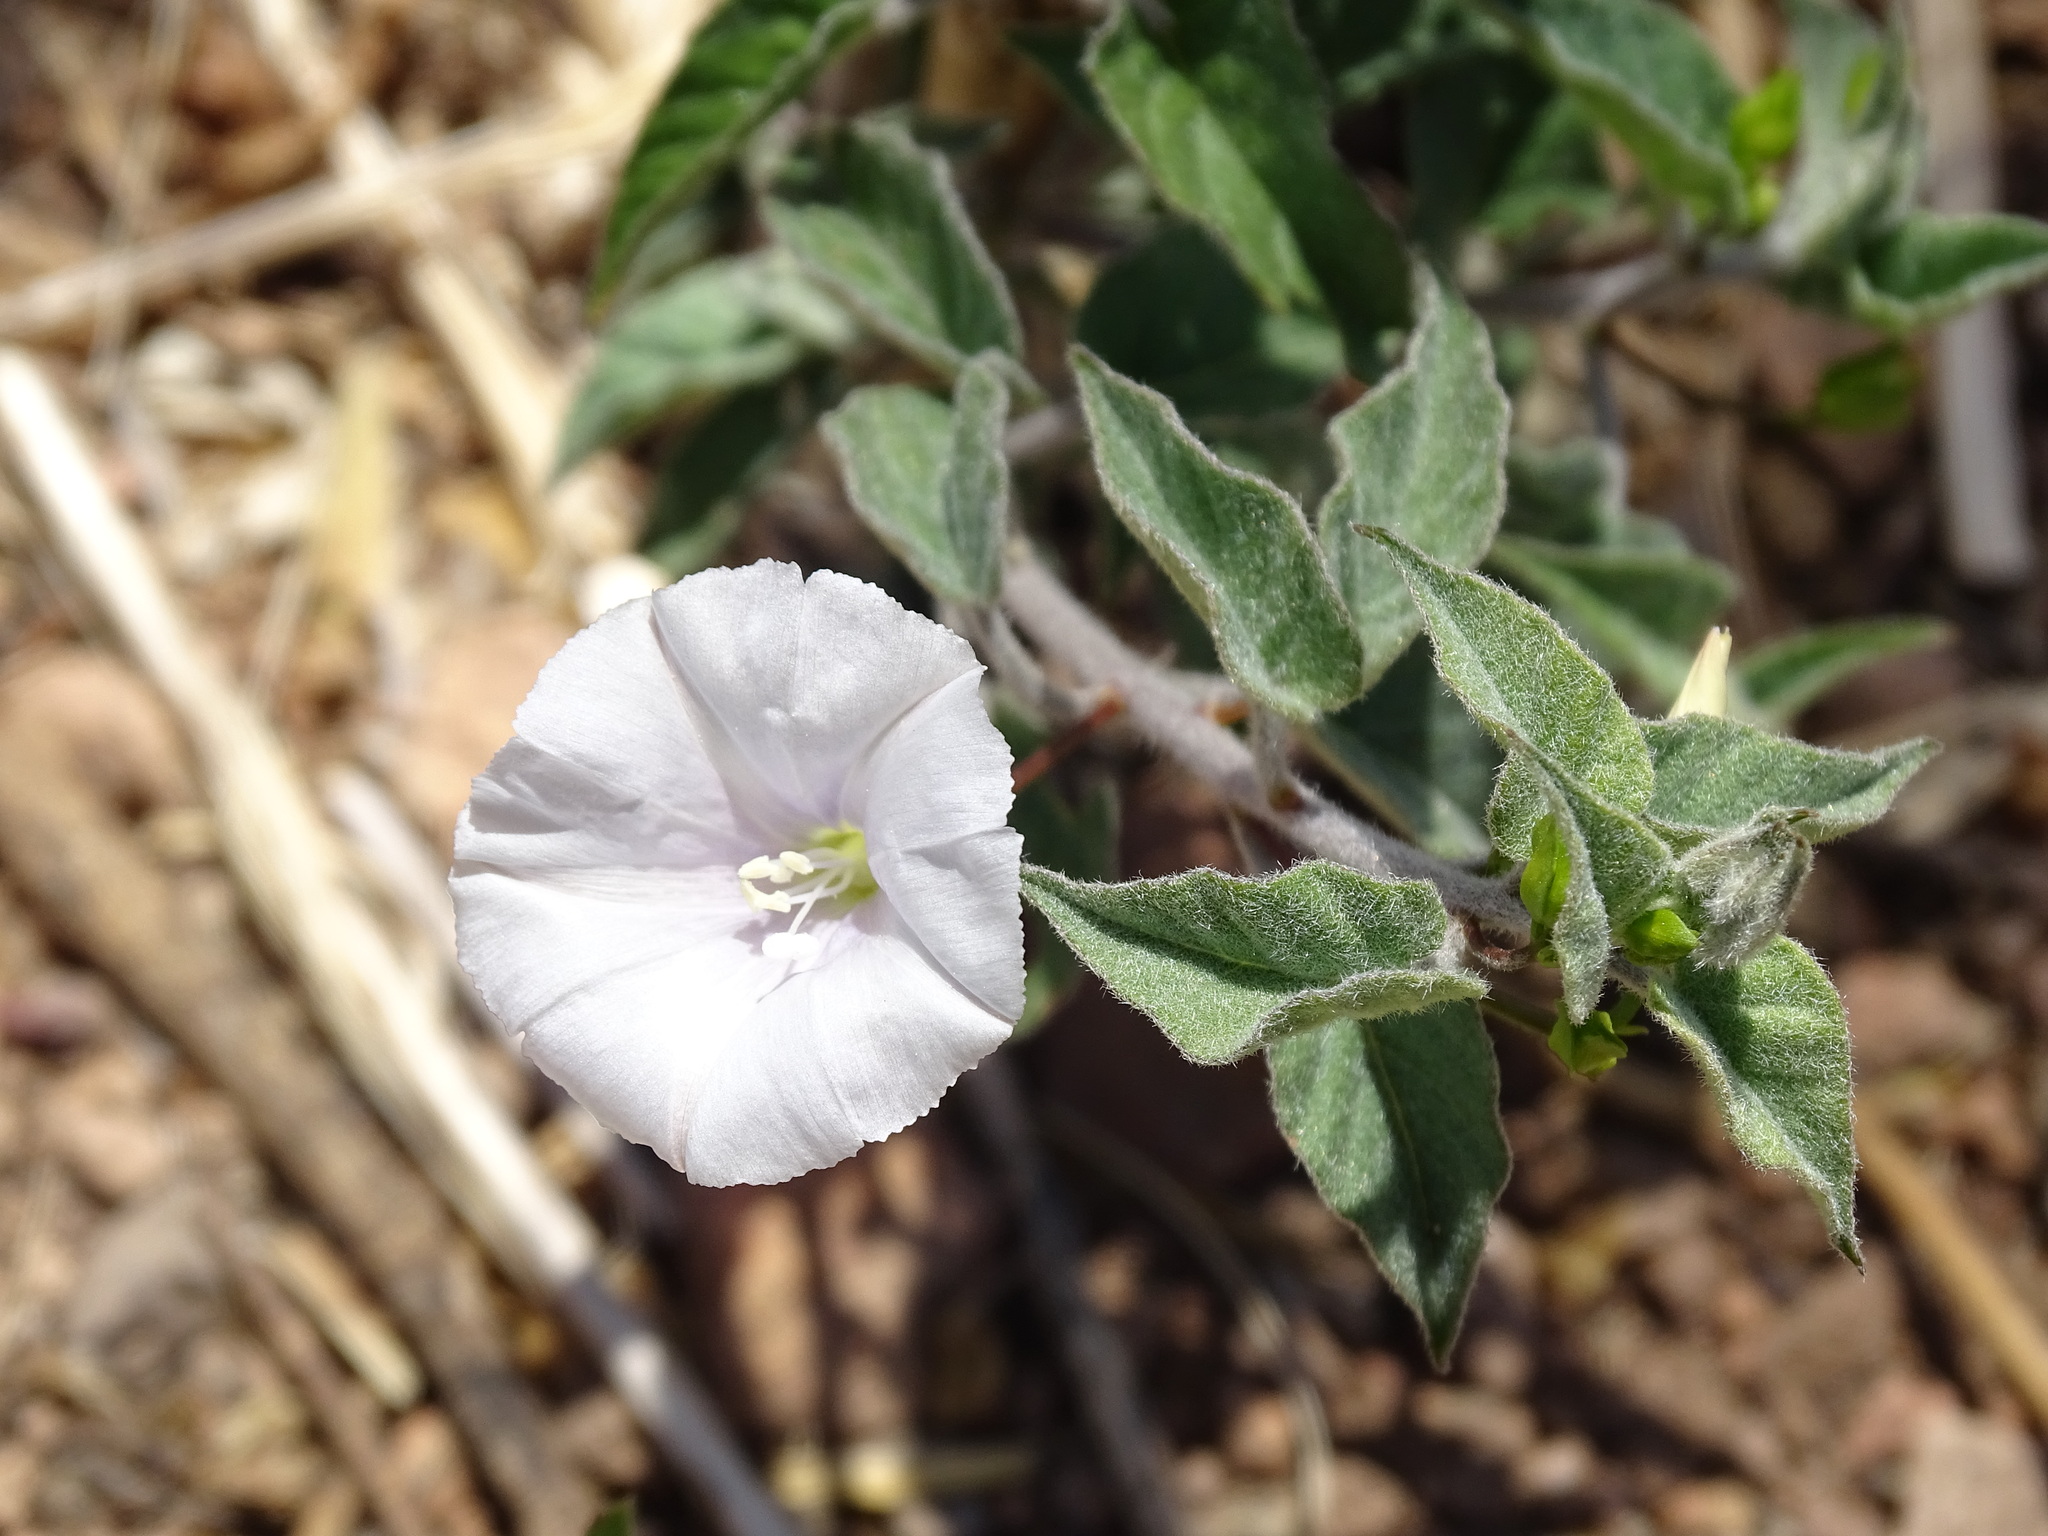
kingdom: Plantae
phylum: Tracheophyta
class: Magnoliopsida
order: Solanales
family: Convolvulaceae
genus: Jacquemontia
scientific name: Jacquemontia pringlei
